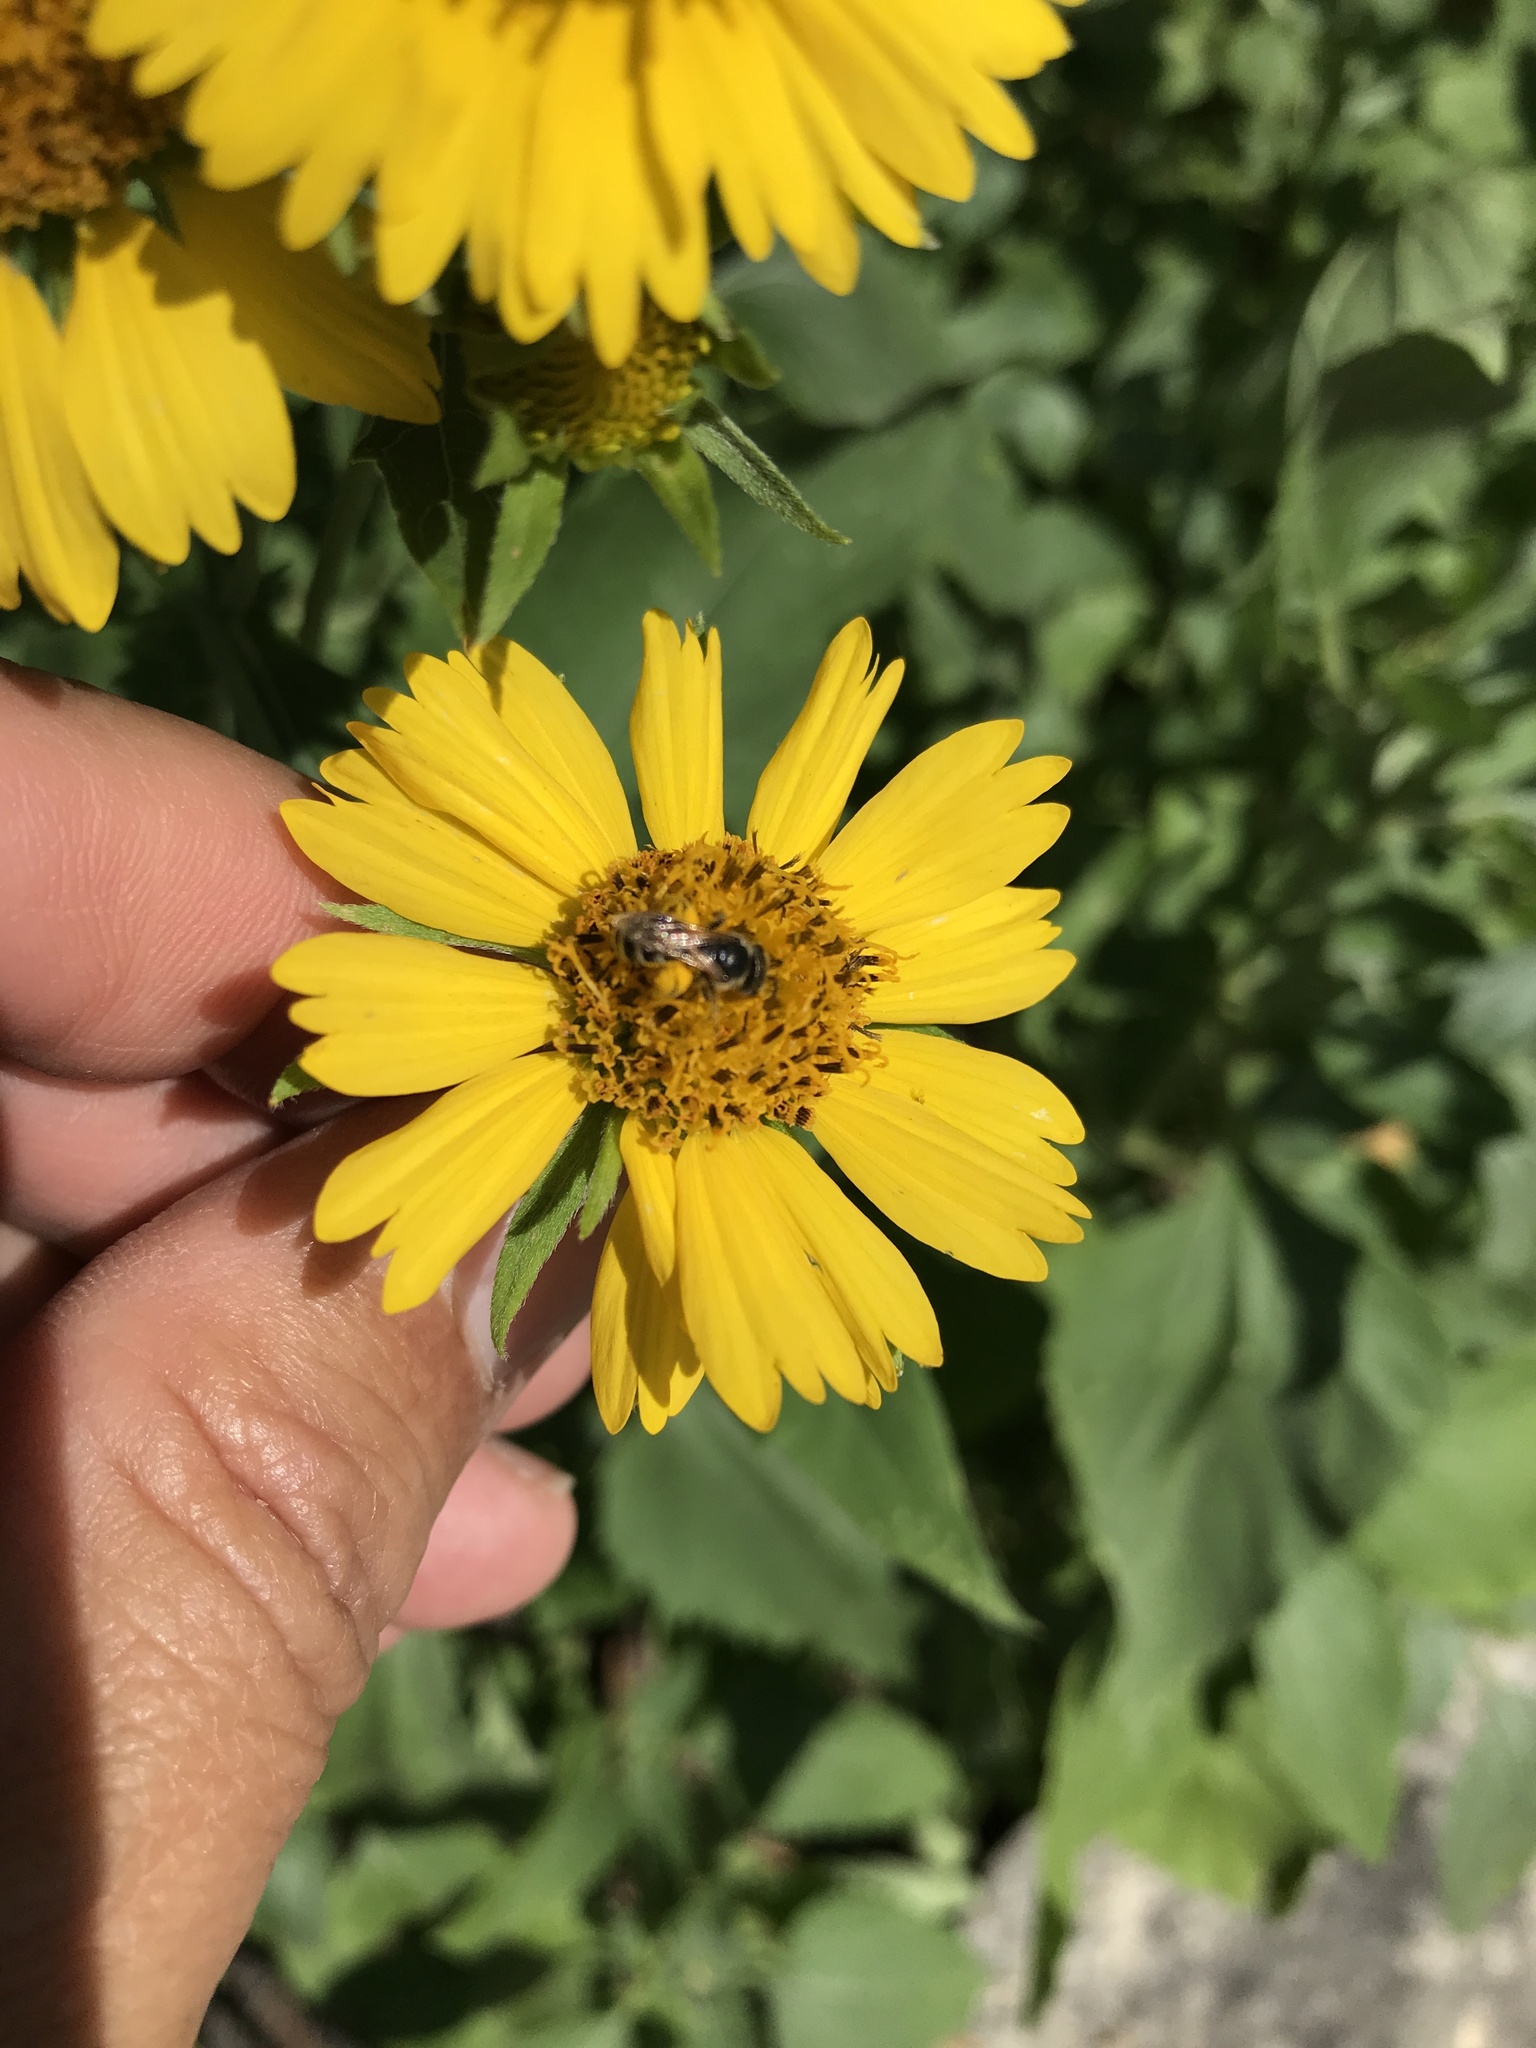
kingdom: Animalia
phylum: Arthropoda
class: Insecta
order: Hymenoptera
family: Halictidae
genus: Halictus
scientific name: Halictus ligatus
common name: Ligated furrow bee
